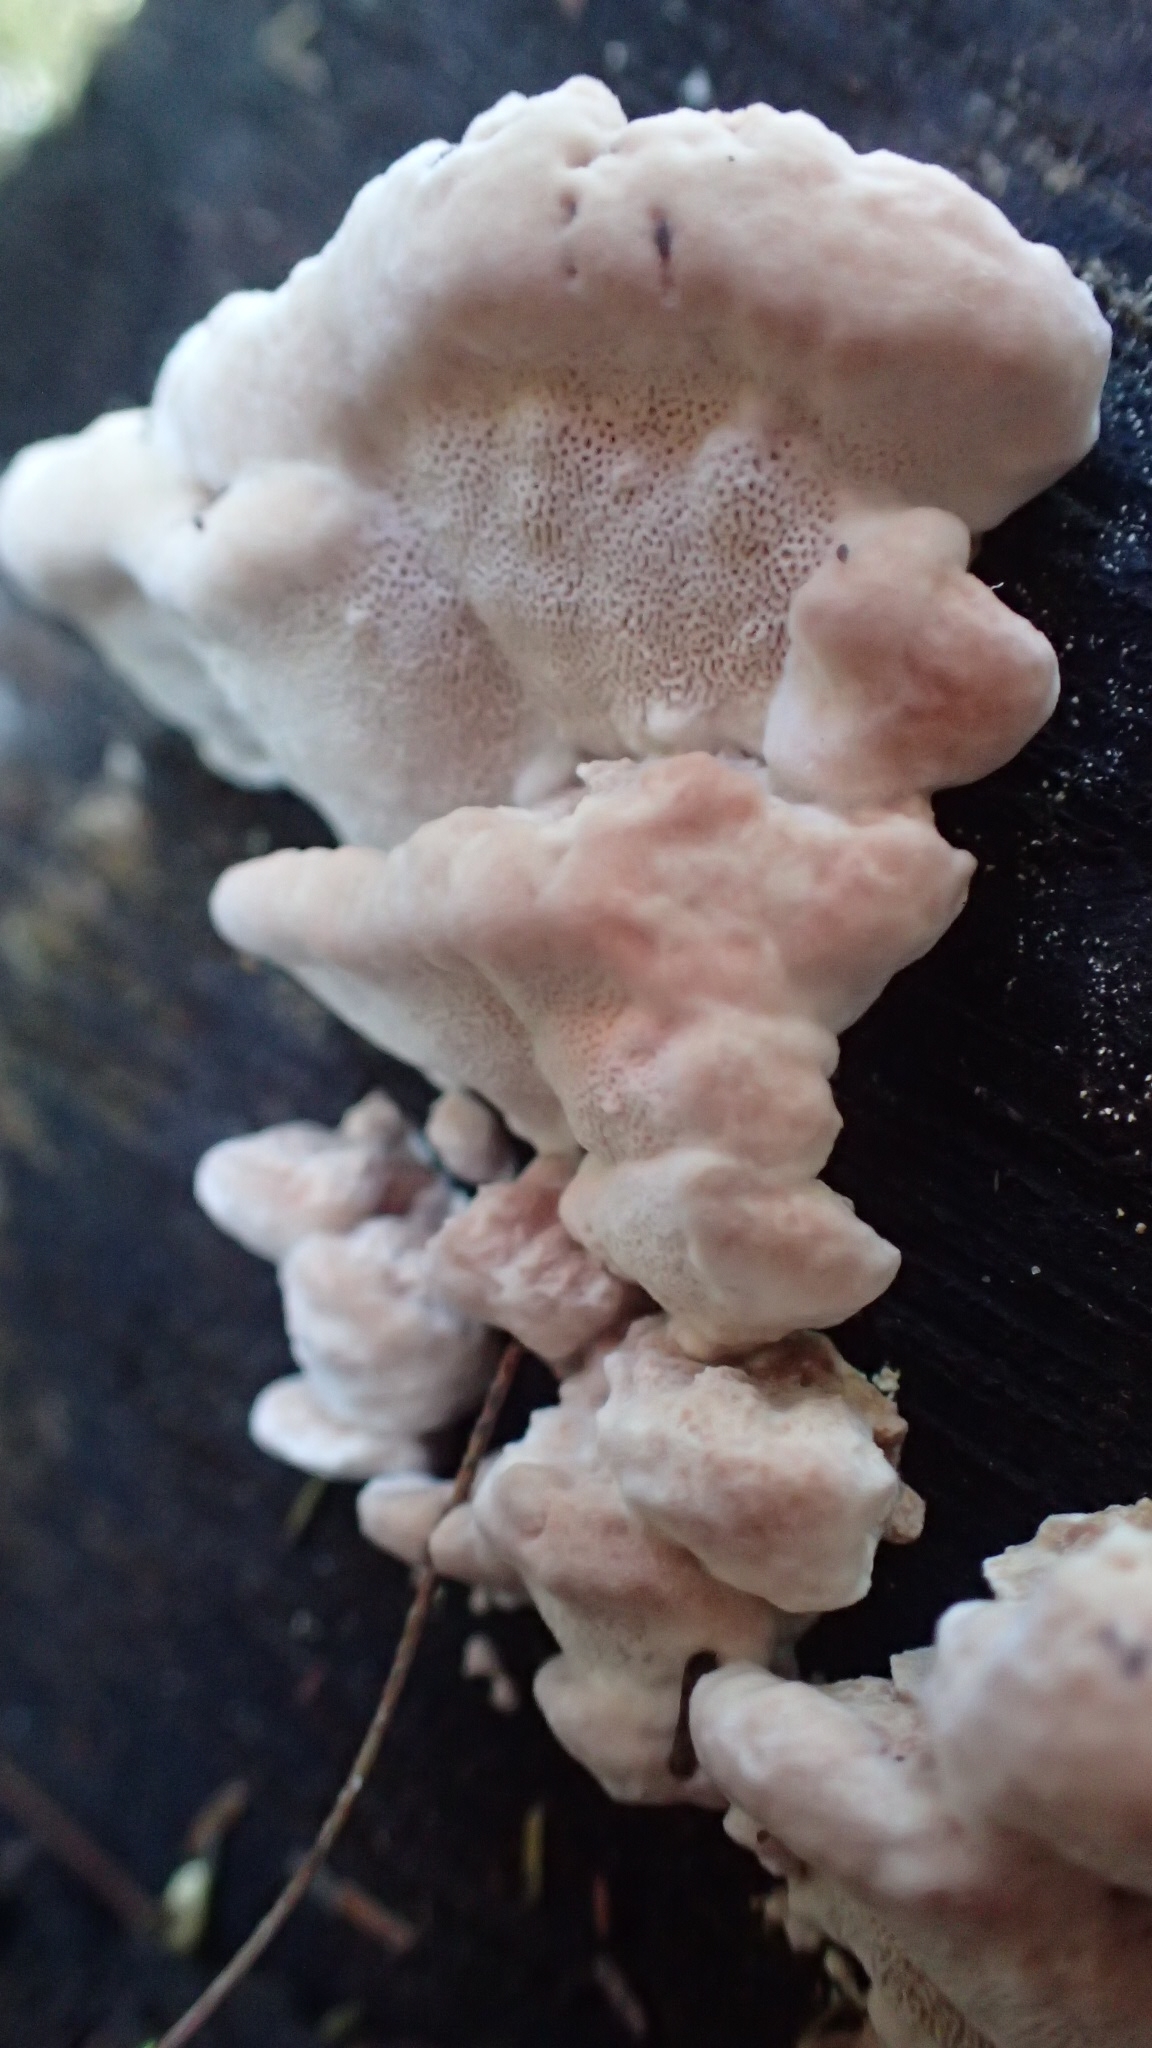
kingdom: Fungi
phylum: Basidiomycota
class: Agaricomycetes
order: Polyporales
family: Fomitopsidaceae
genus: Rhodofomitopsis
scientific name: Rhodofomitopsis lilacinogilva
